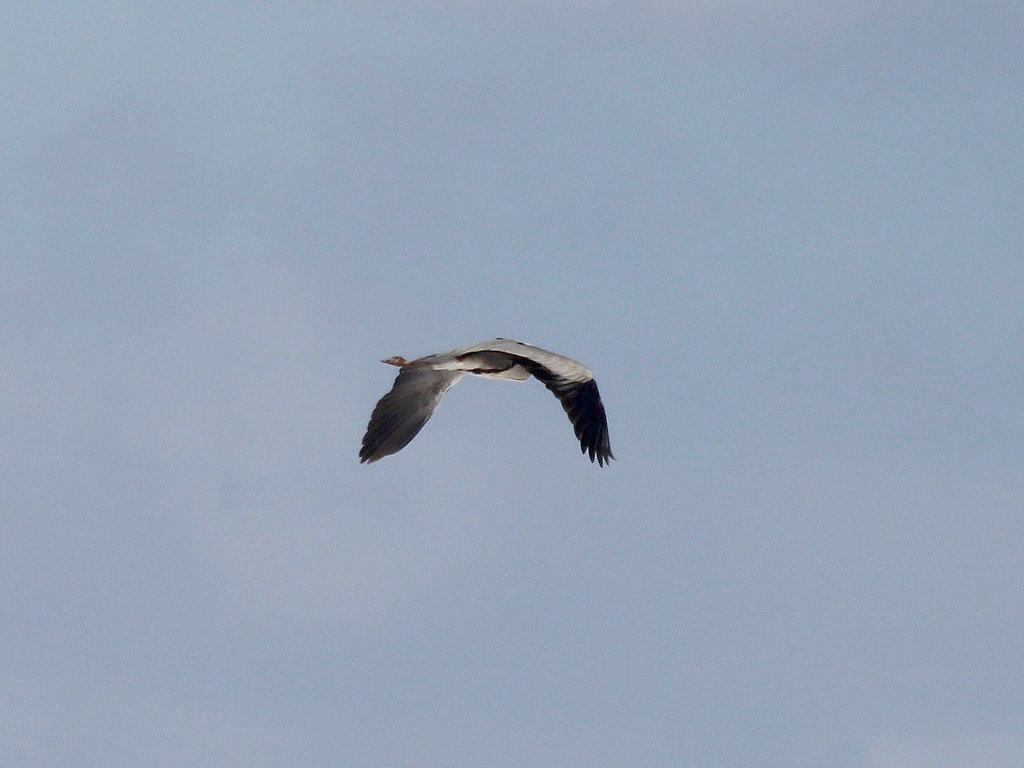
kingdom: Animalia
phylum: Chordata
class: Aves
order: Pelecaniformes
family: Ardeidae
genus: Ardea
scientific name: Ardea cinerea
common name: Grey heron
